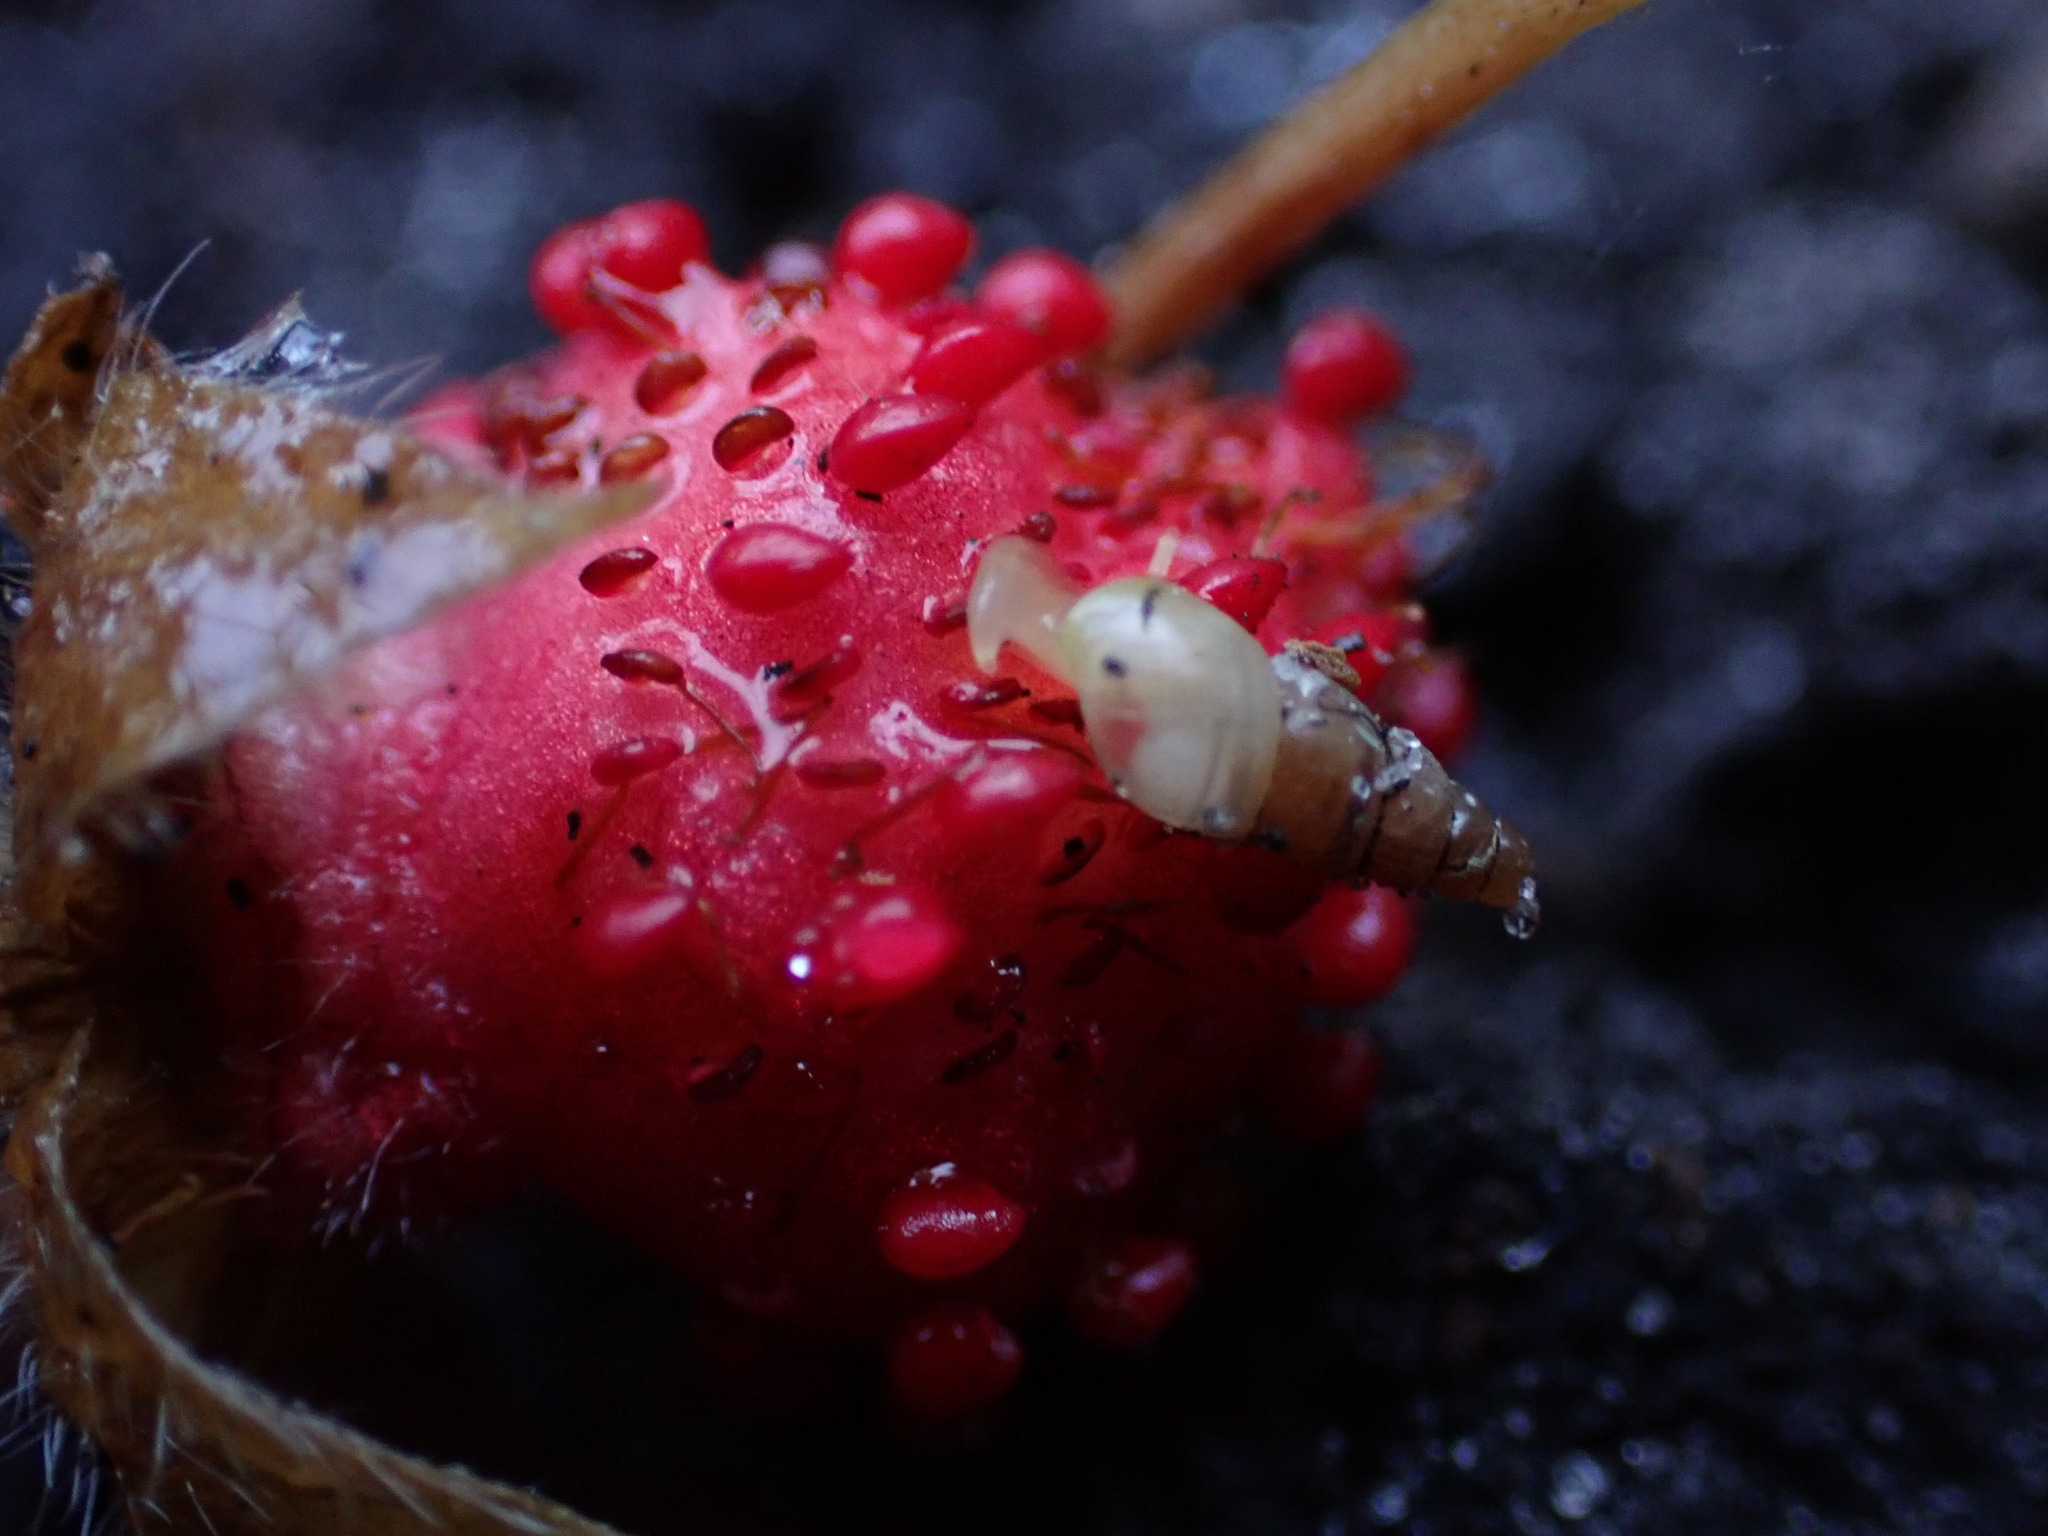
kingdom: Plantae
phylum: Tracheophyta
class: Magnoliopsida
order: Rosales
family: Rosaceae
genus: Potentilla
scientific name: Potentilla indica
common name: Yellow-flowered strawberry
